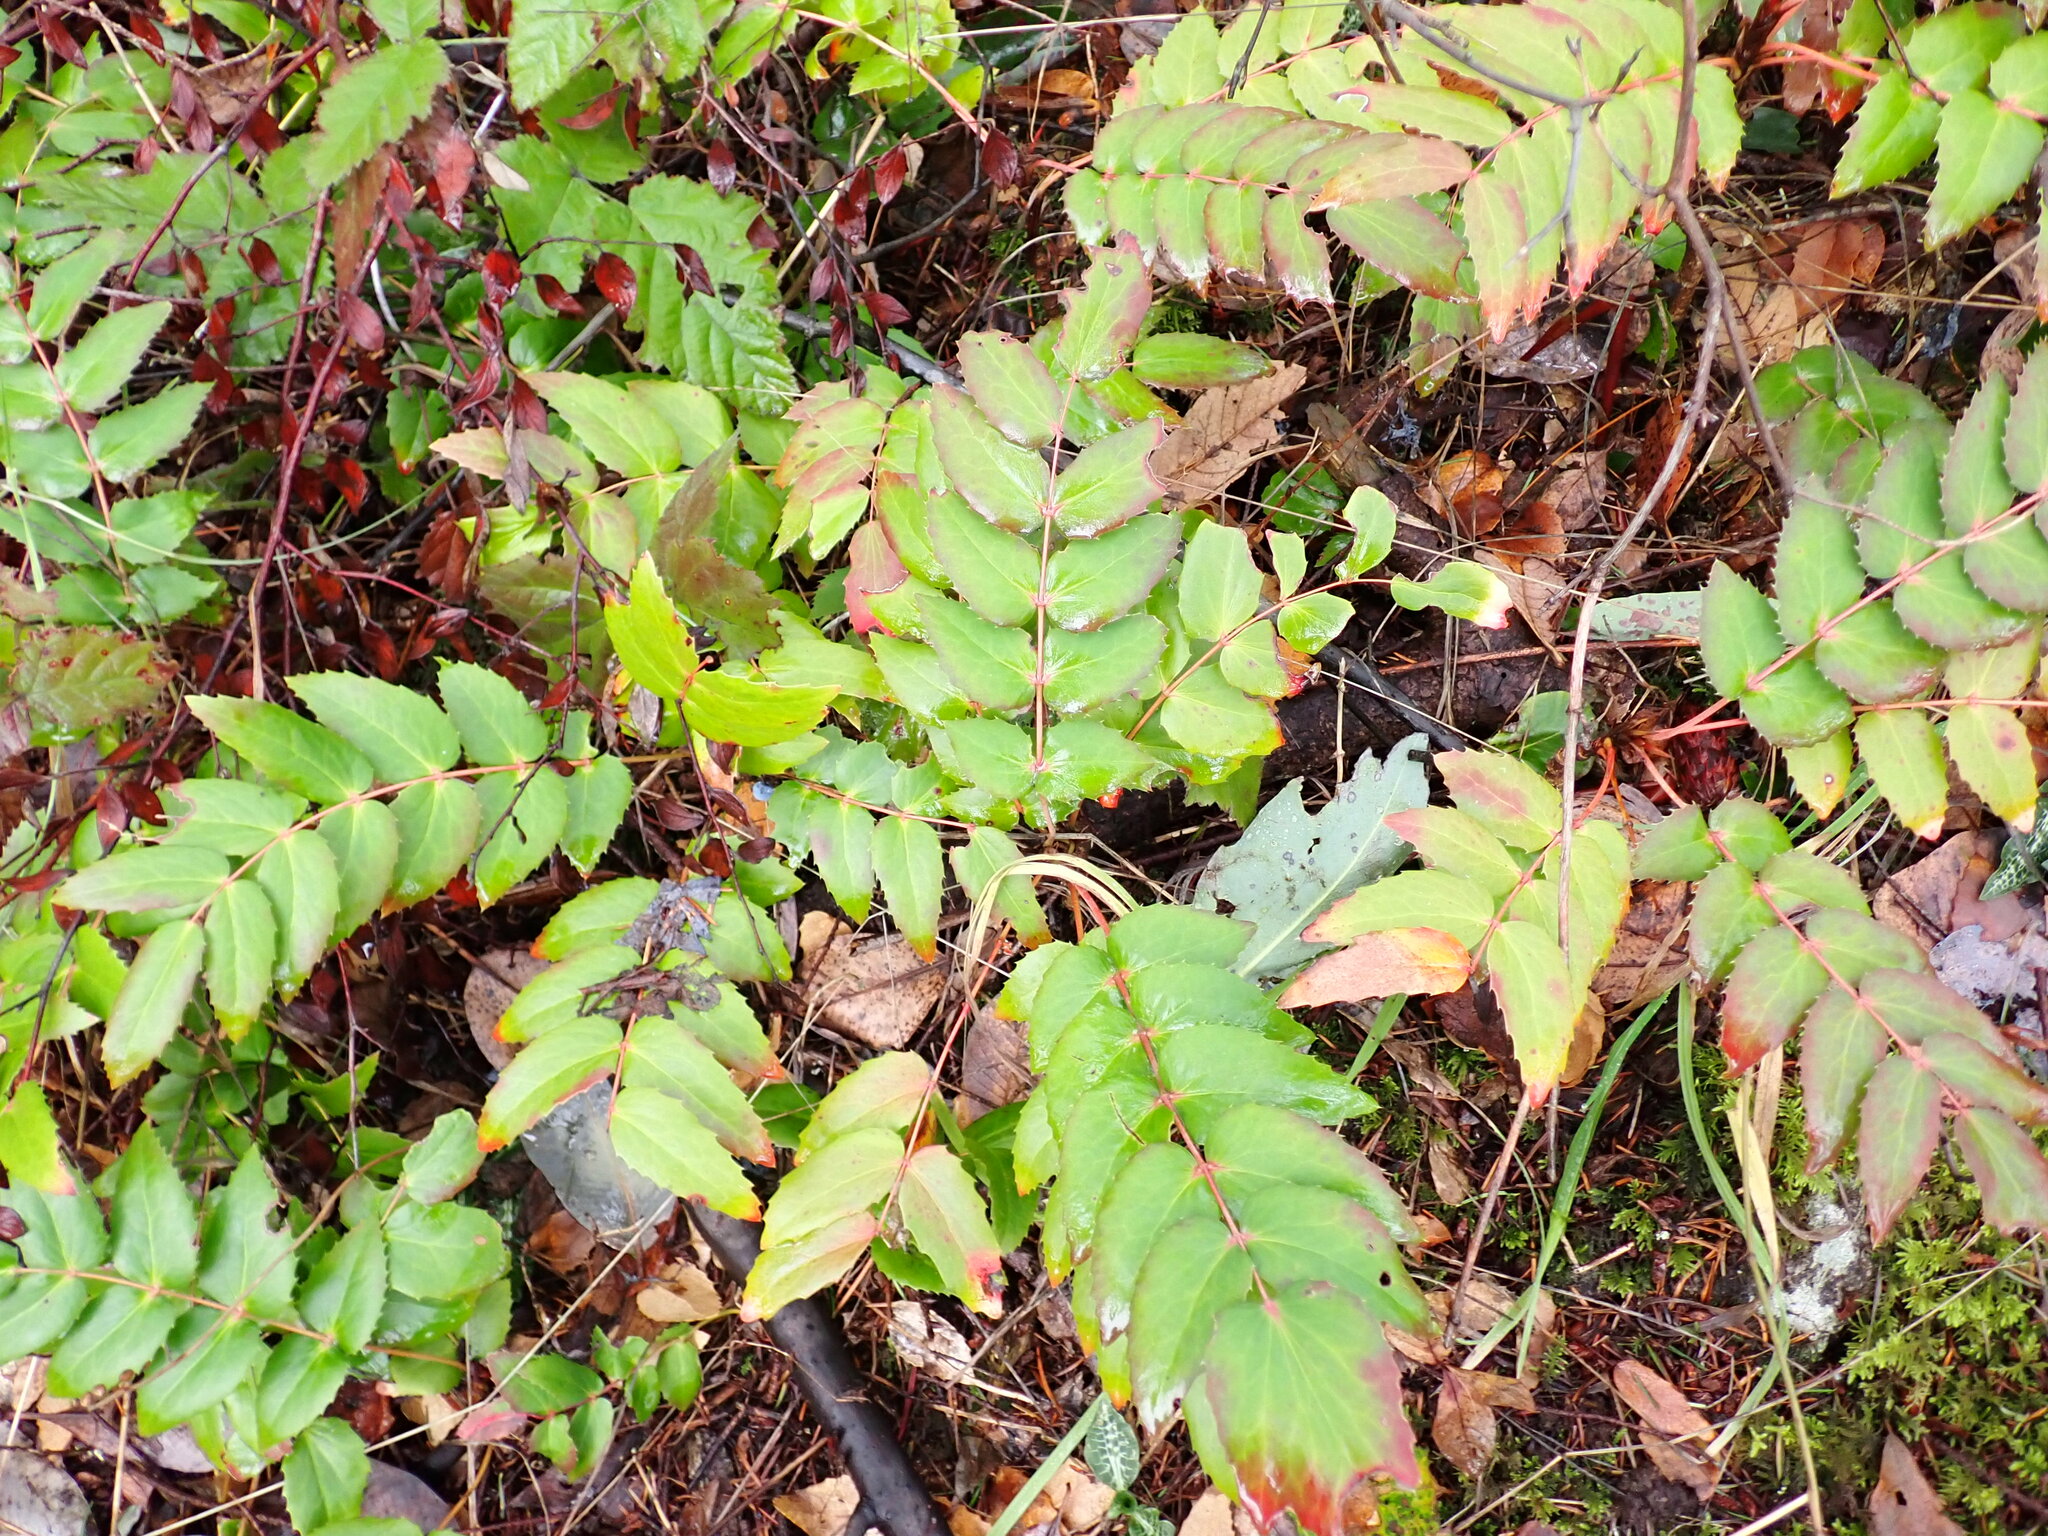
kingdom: Plantae
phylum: Tracheophyta
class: Magnoliopsida
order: Ranunculales
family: Berberidaceae
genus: Mahonia
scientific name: Mahonia nervosa
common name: Cascade oregon-grape
